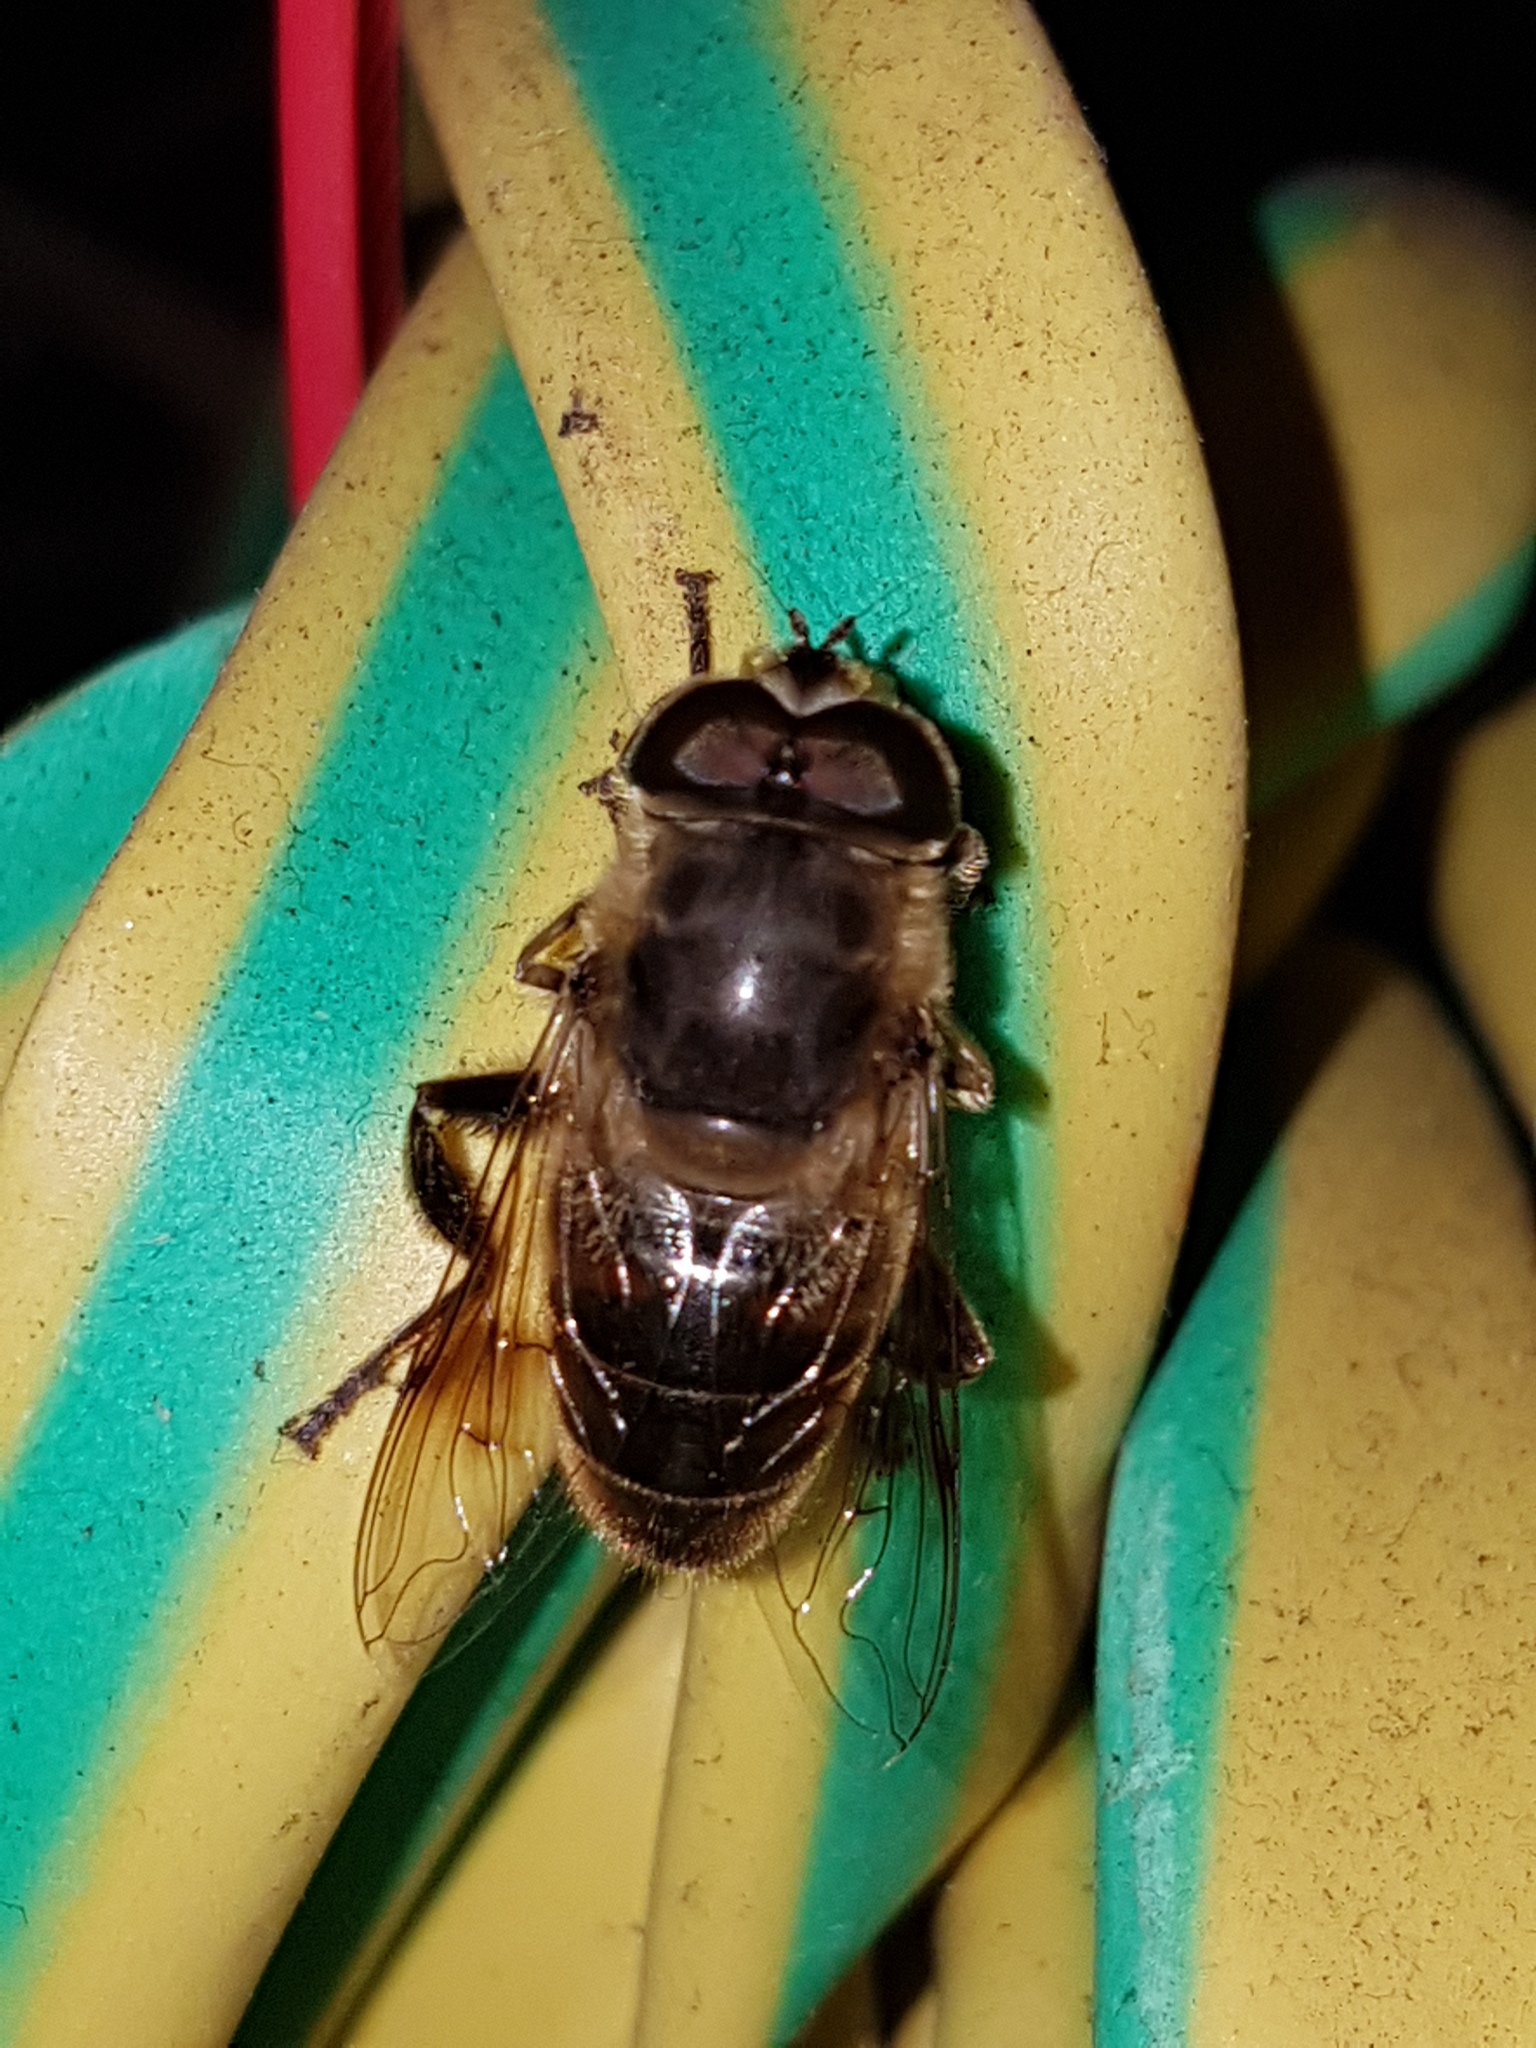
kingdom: Animalia
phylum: Arthropoda
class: Insecta
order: Diptera
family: Syrphidae
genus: Eristalis
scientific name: Eristalis tenax
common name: Drone fly
